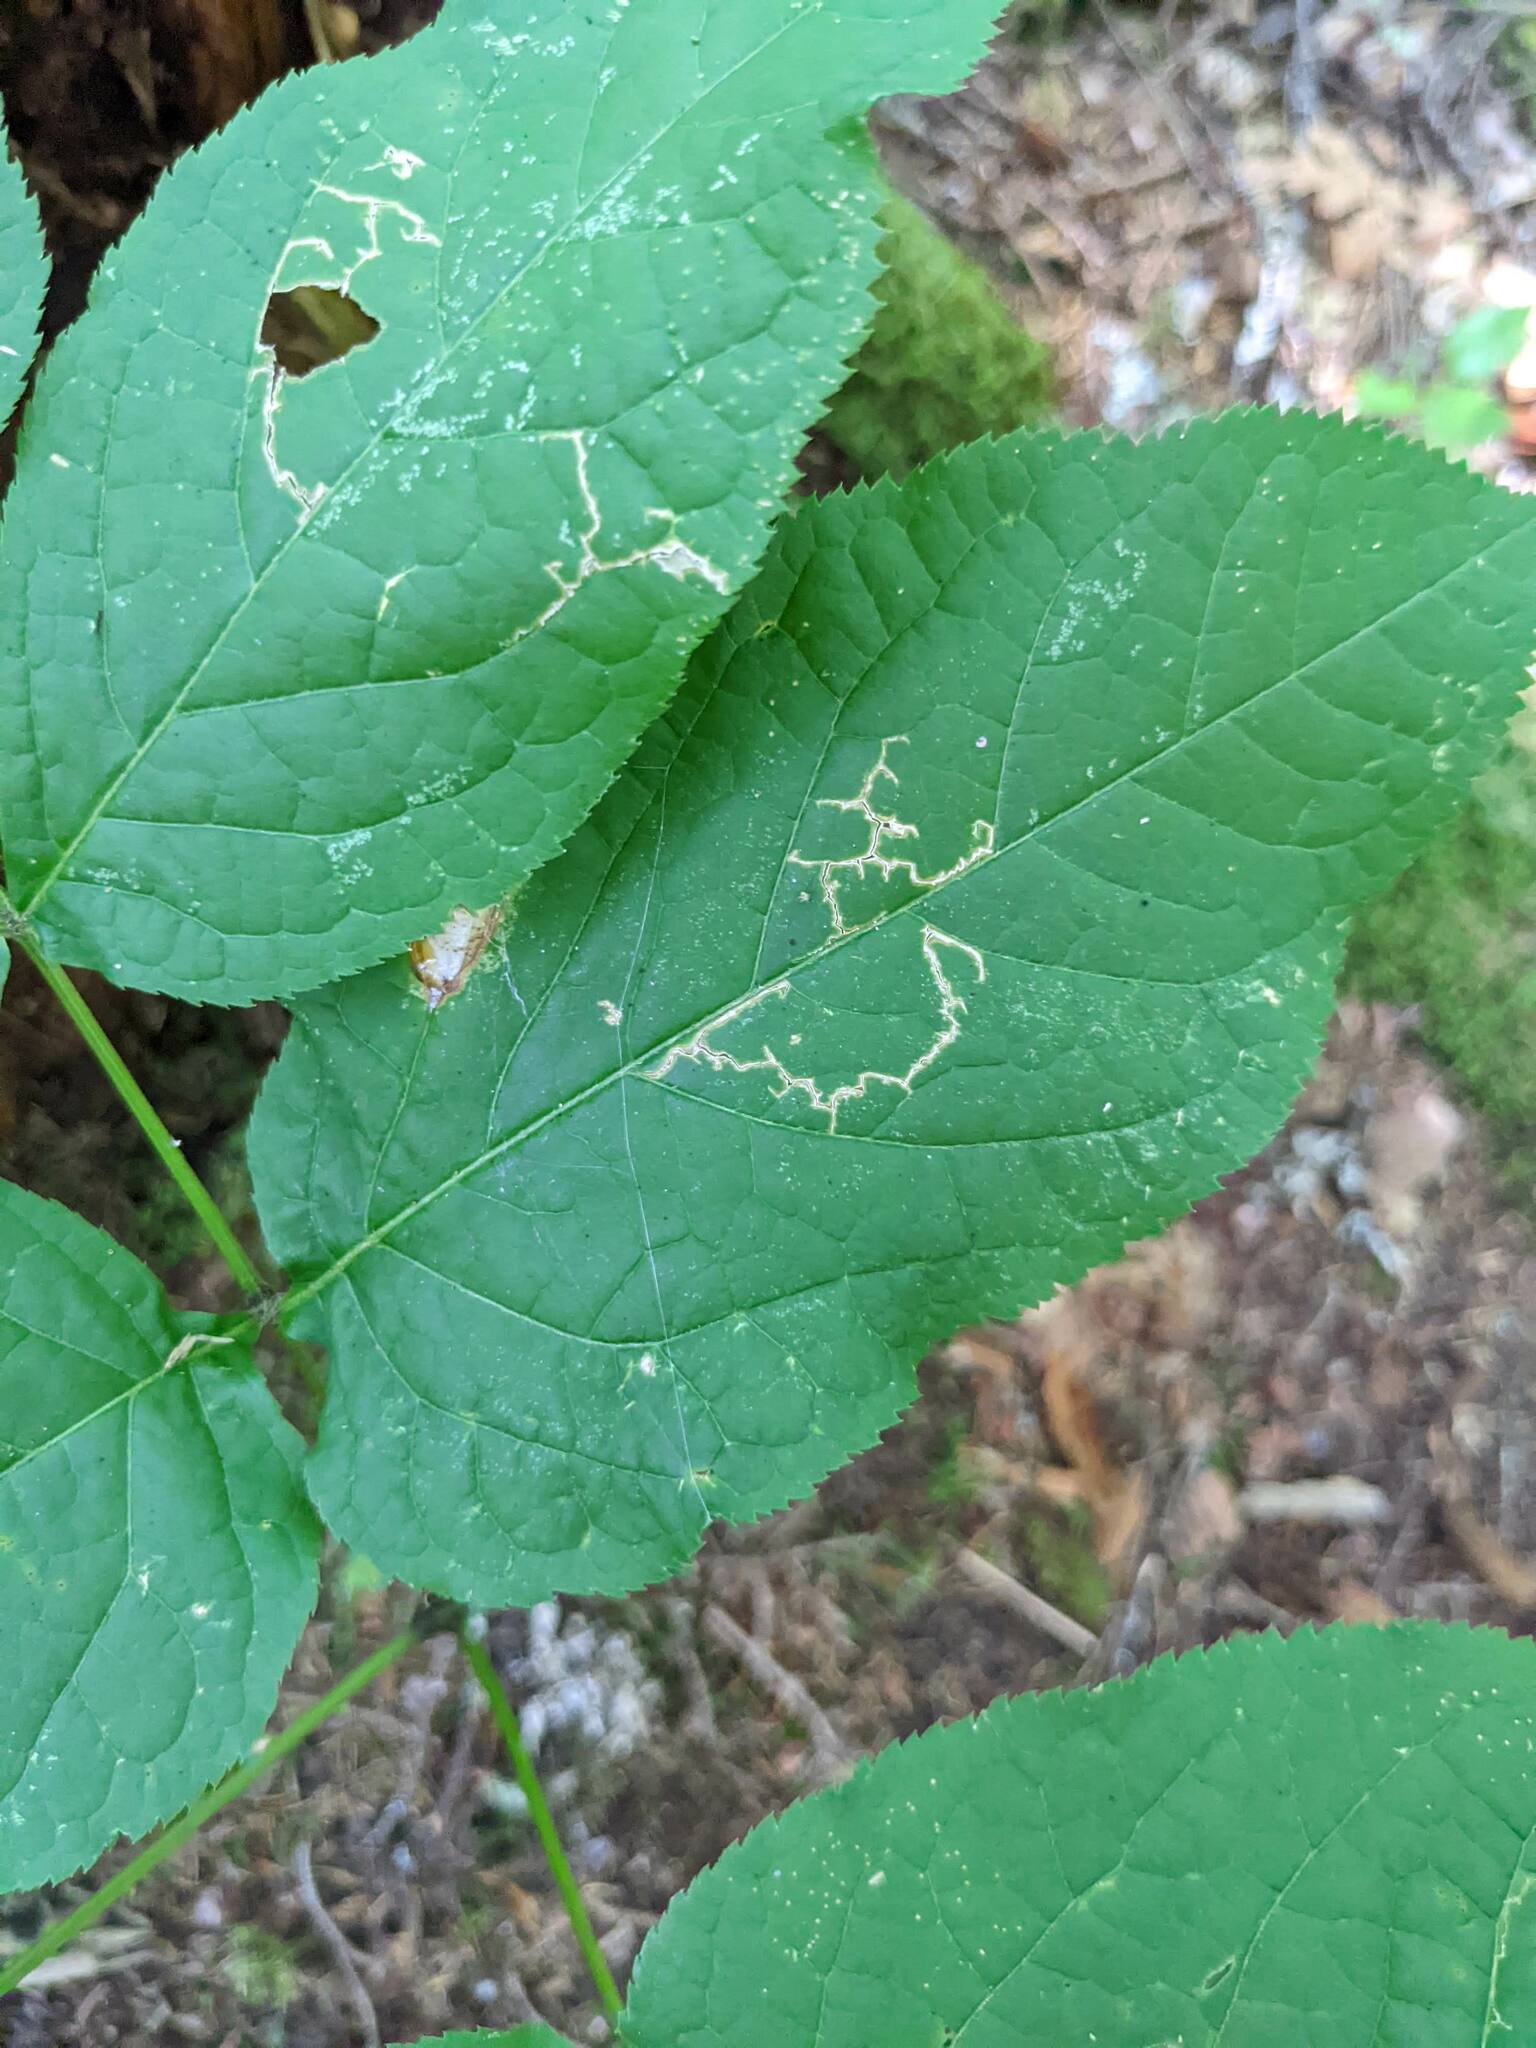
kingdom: Plantae
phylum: Tracheophyta
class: Magnoliopsida
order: Apiales
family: Araliaceae
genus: Aralia
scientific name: Aralia nudicaulis
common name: Wild sarsaparilla
